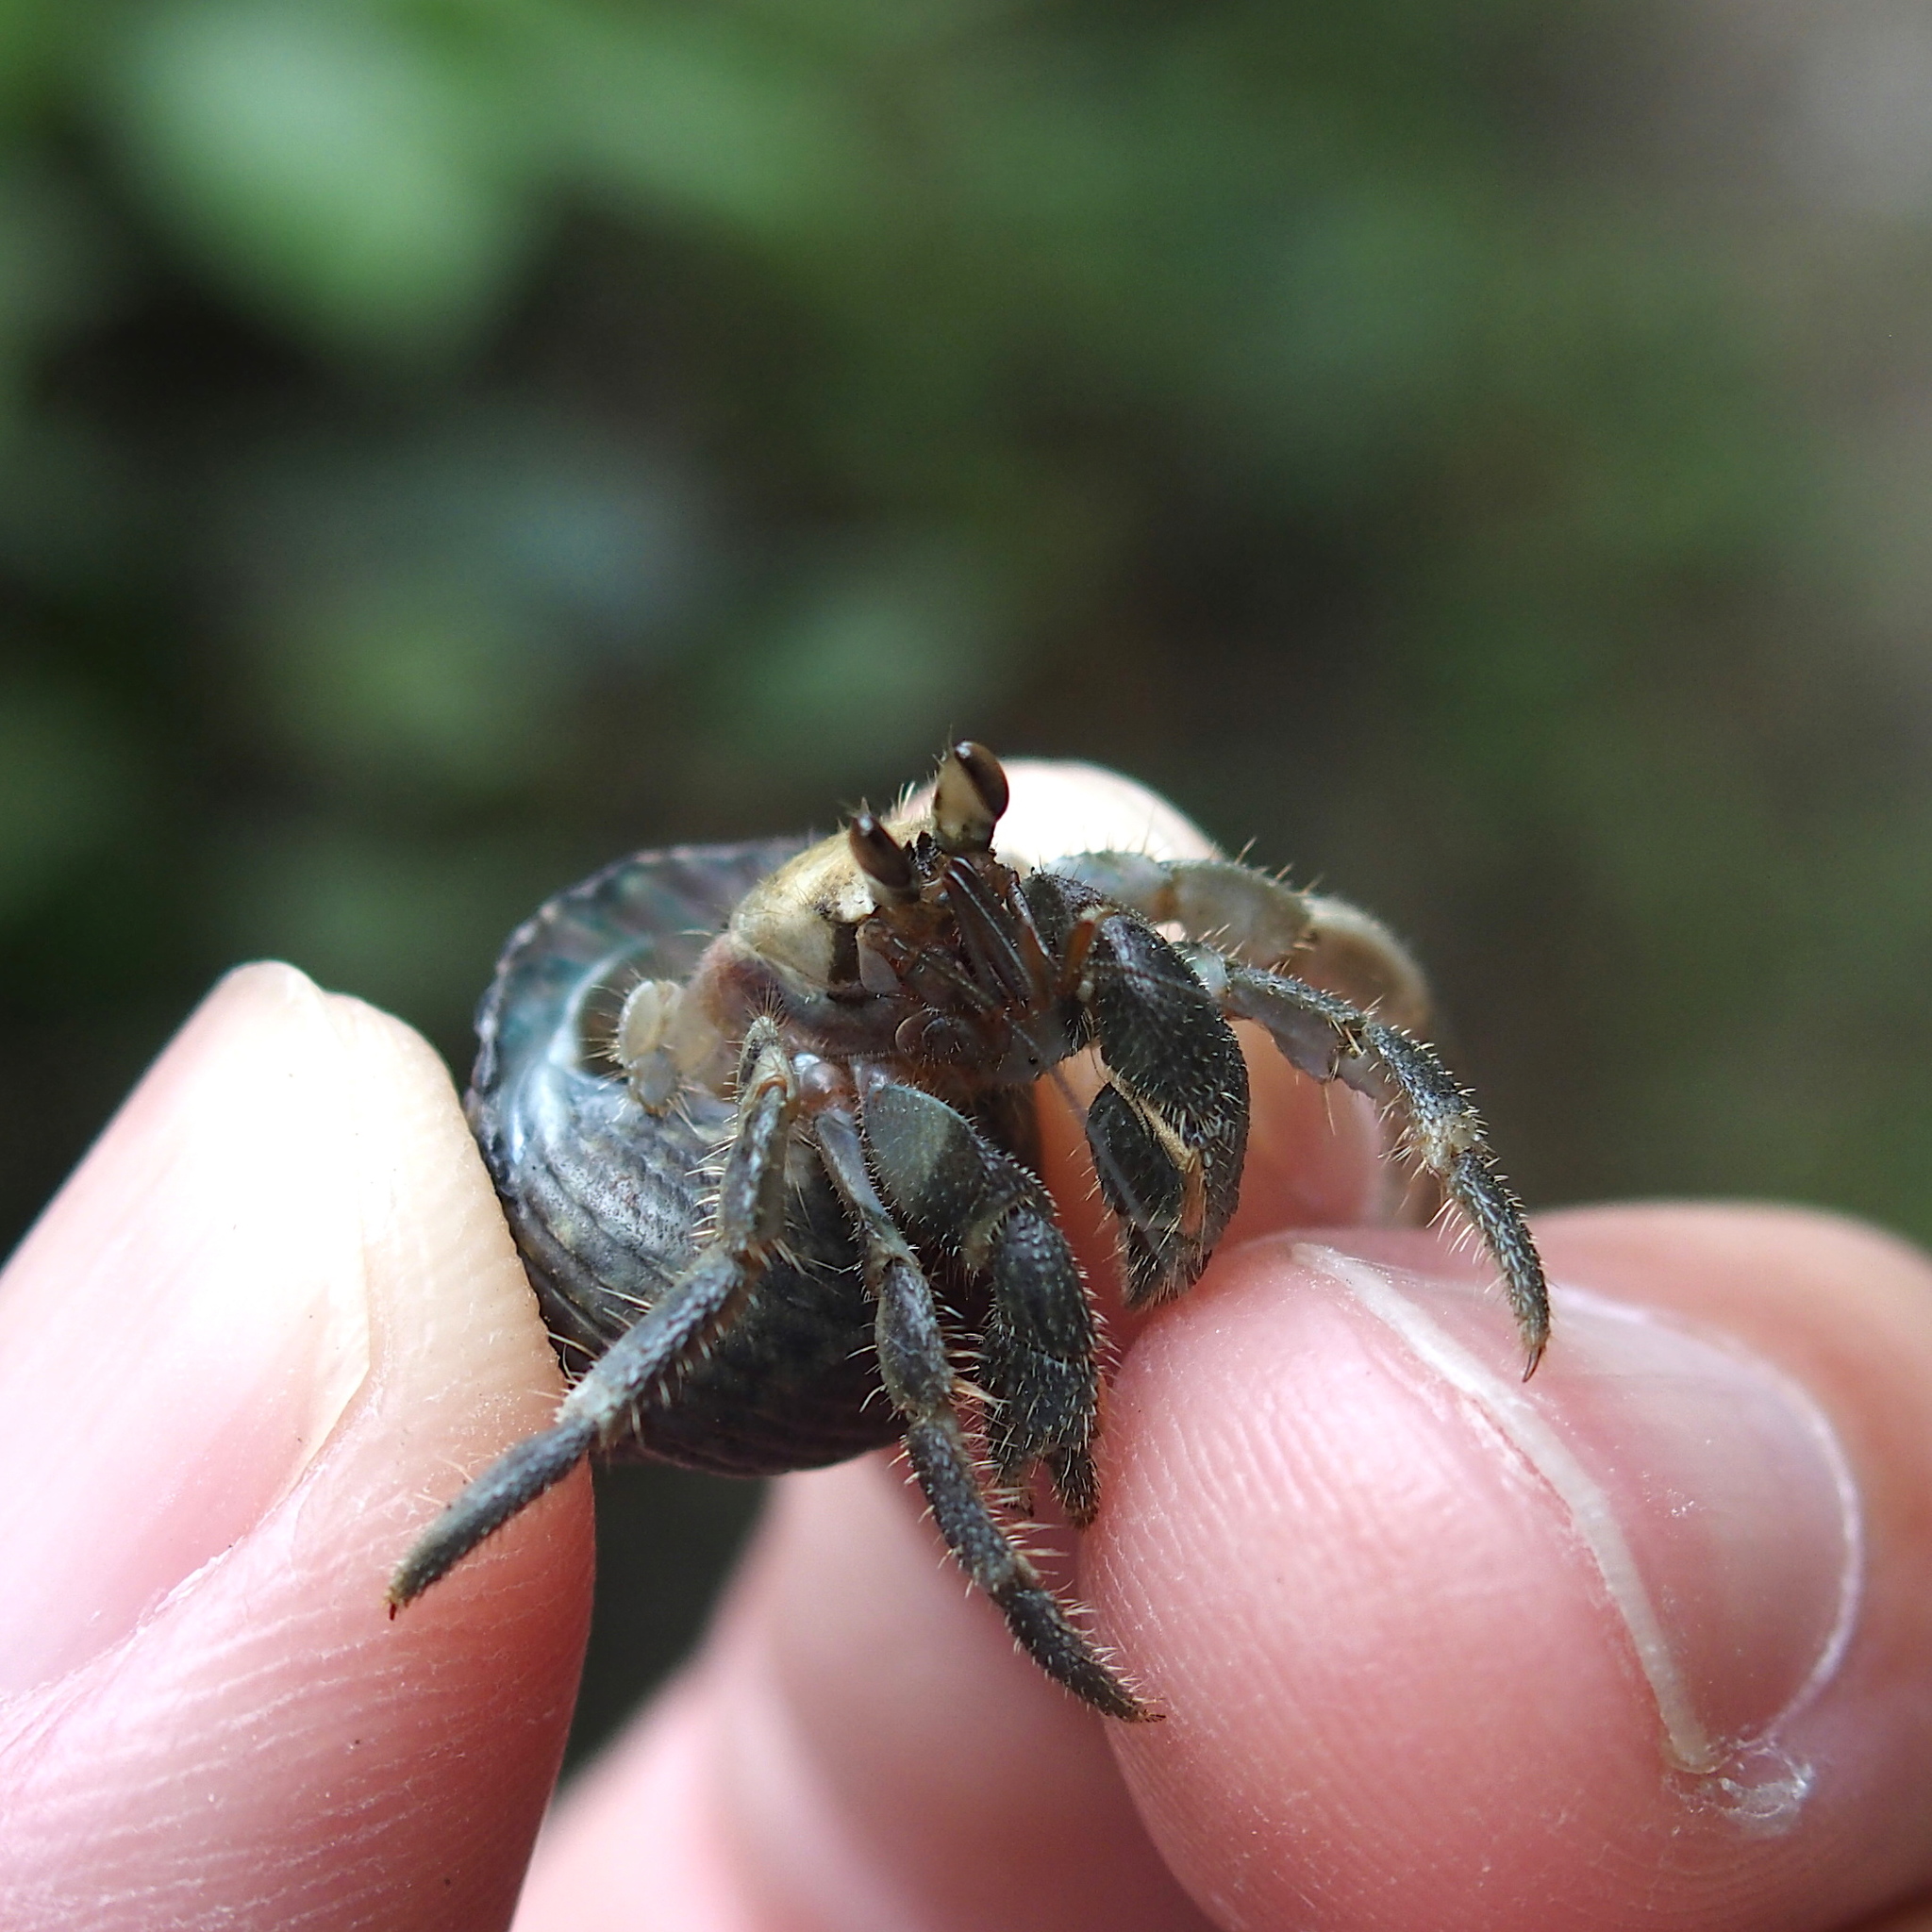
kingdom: Animalia
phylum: Arthropoda
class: Malacostraca
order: Decapoda
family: Coenobitidae
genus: Coenobita
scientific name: Coenobita rugosus
